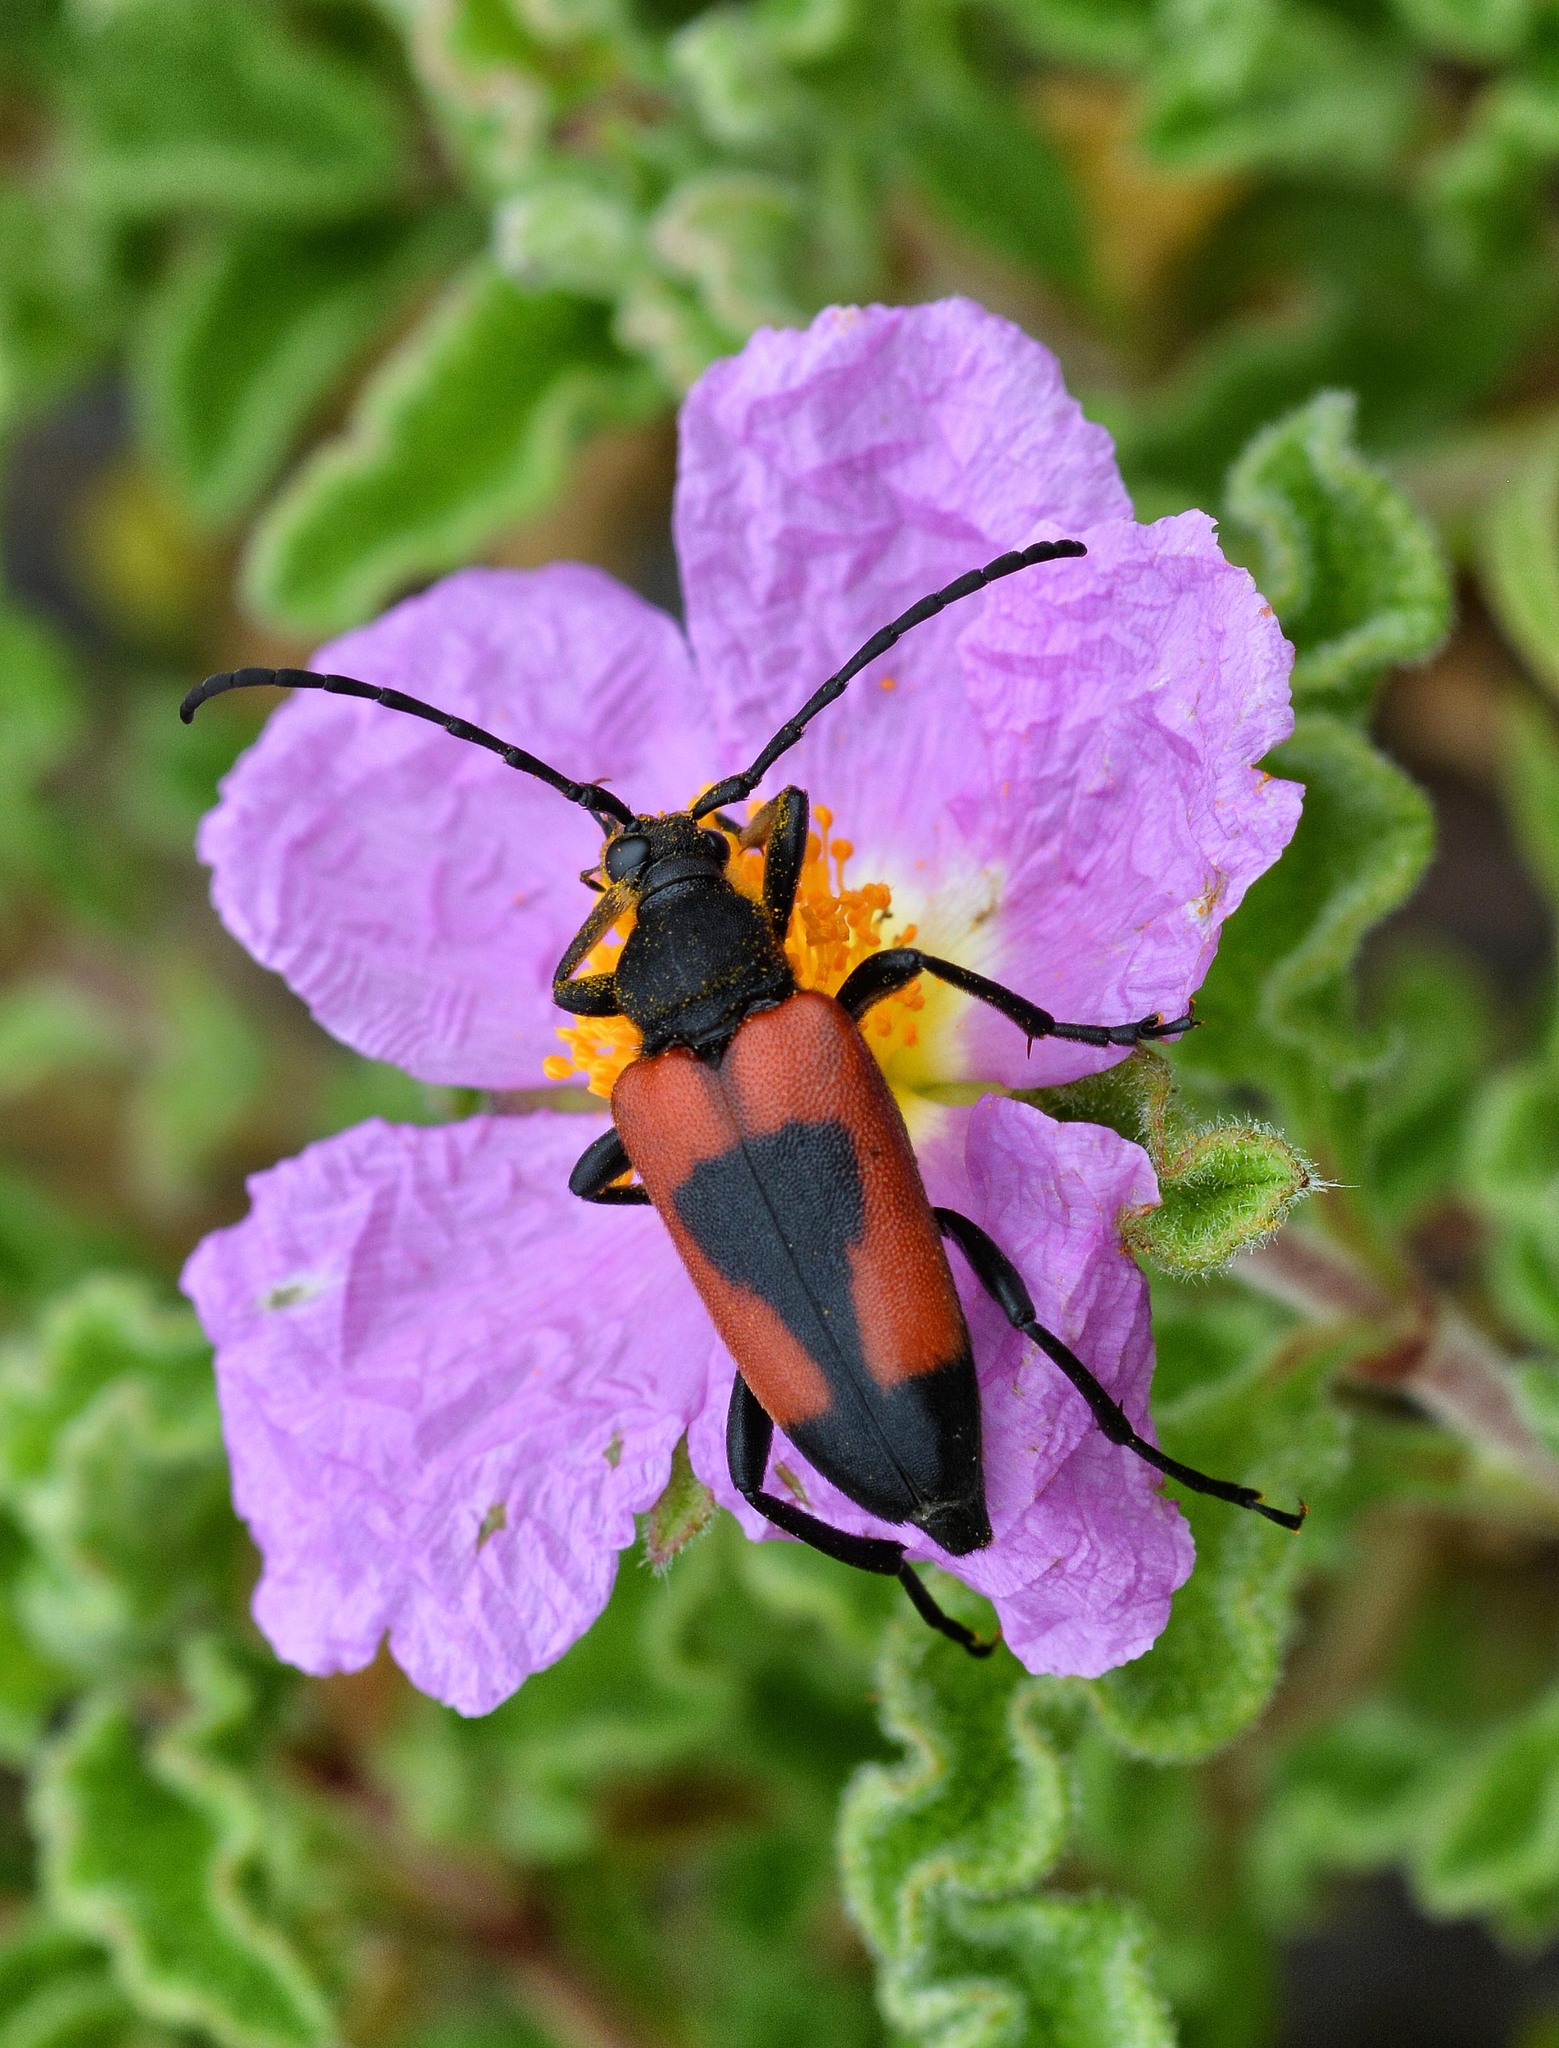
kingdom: Animalia
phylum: Arthropoda
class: Insecta
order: Coleoptera
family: Cerambycidae
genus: Stictoleptura
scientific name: Stictoleptura cordigera
